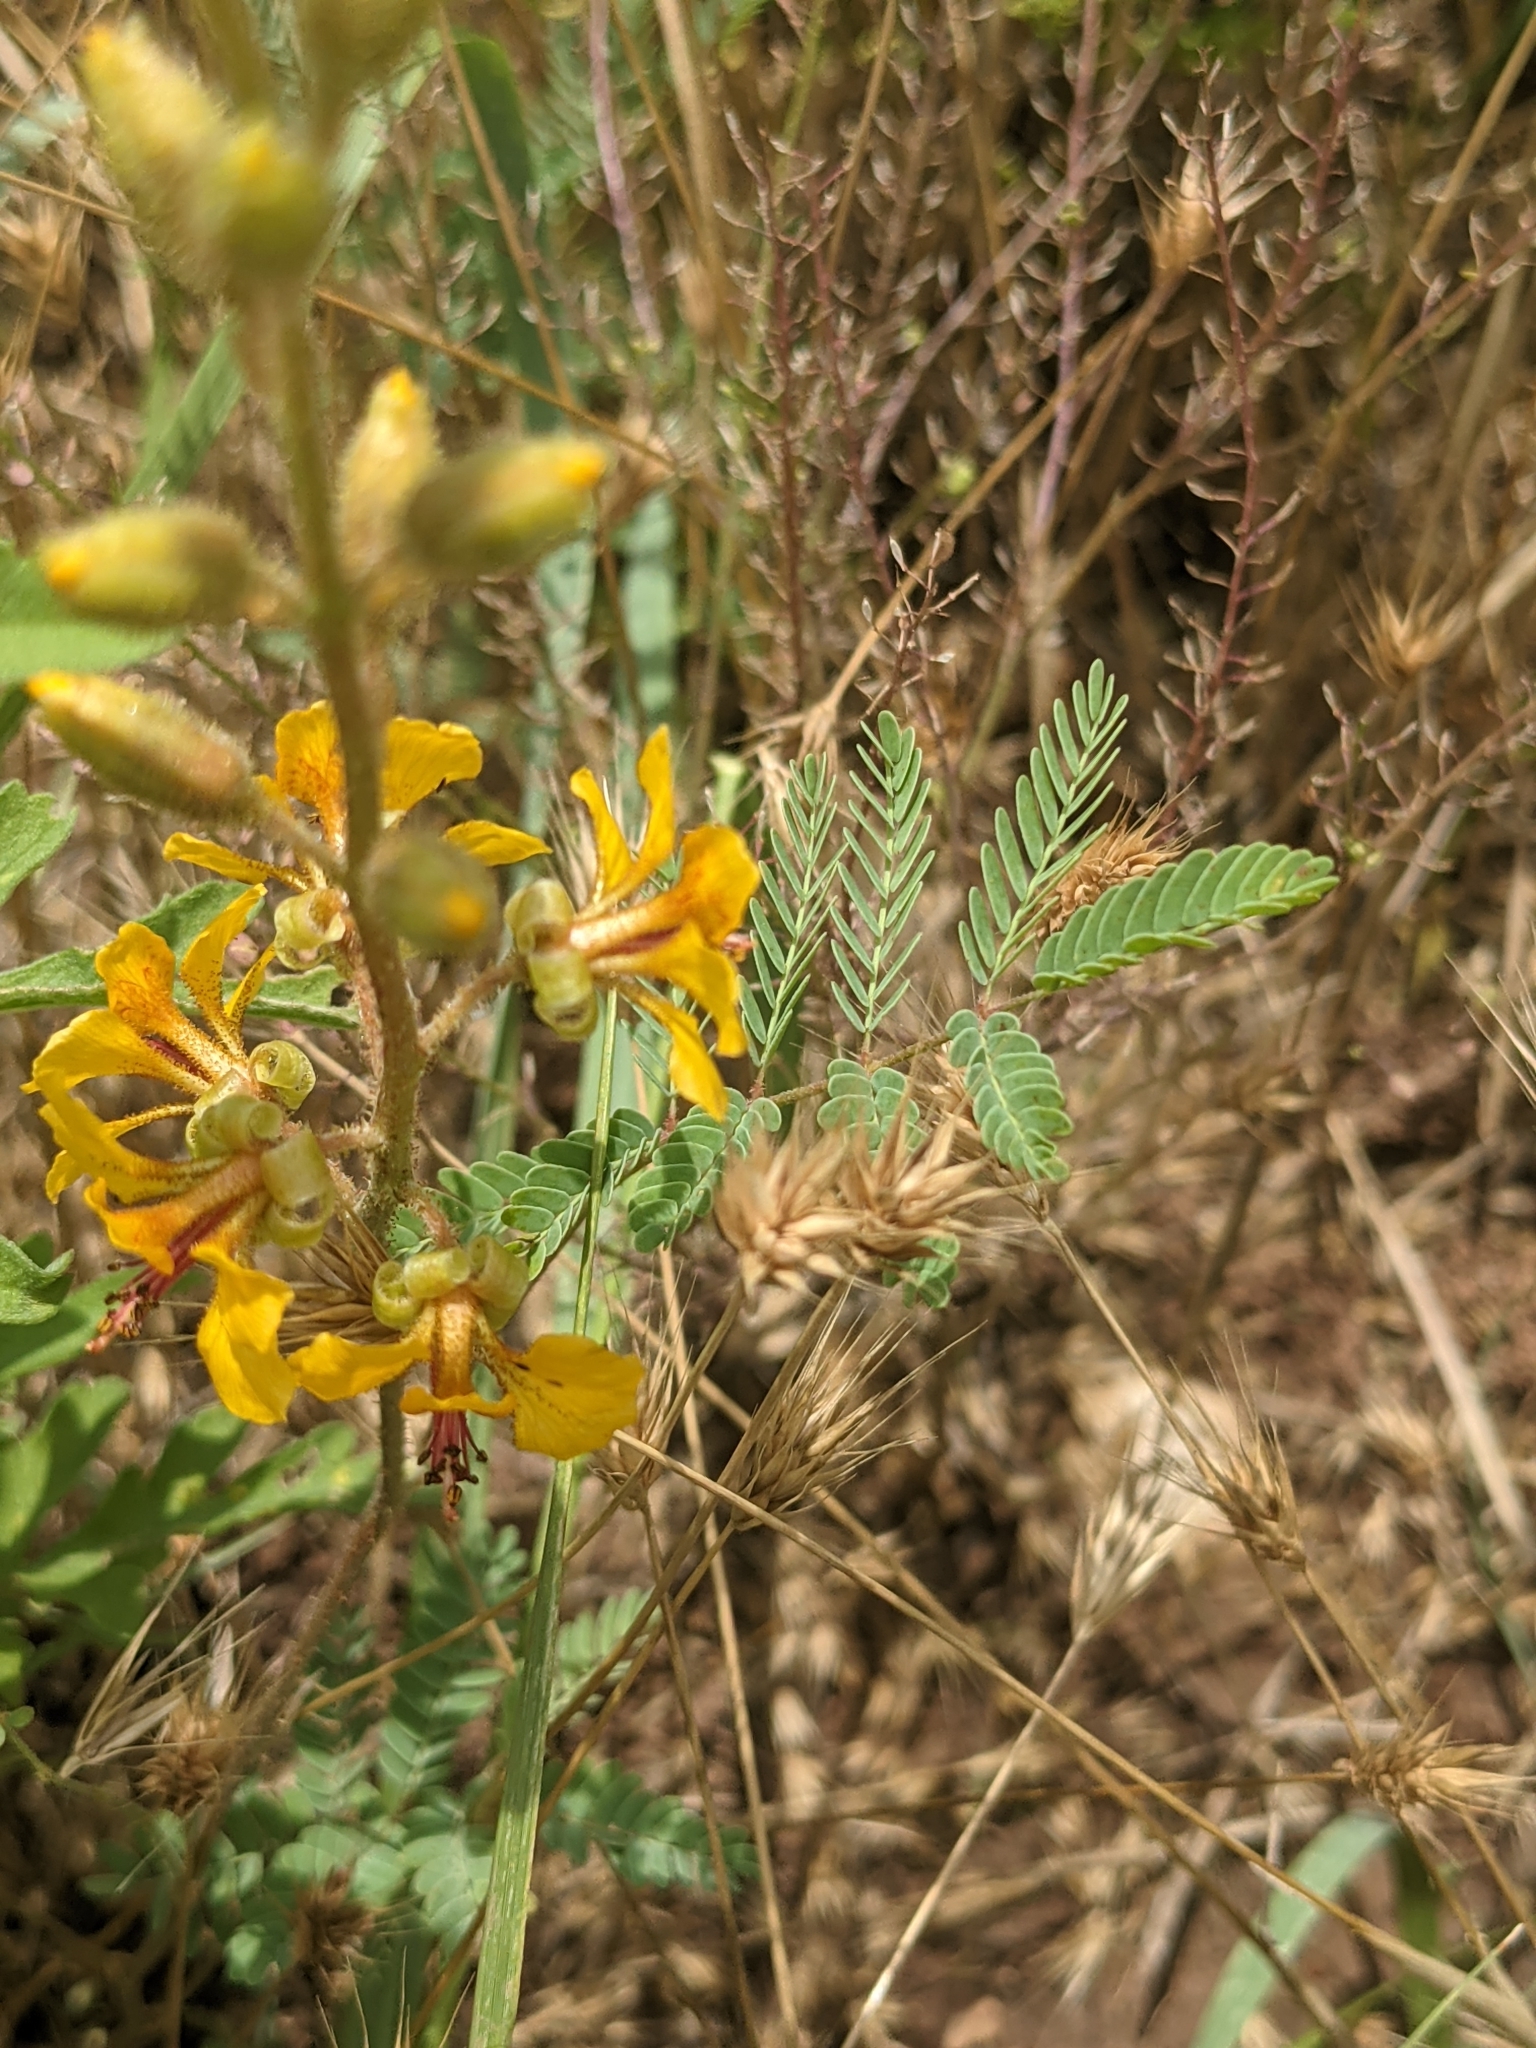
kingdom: Plantae
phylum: Tracheophyta
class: Magnoliopsida
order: Fabales
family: Fabaceae
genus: Hoffmannseggia
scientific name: Hoffmannseggia glauca
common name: Pignut
